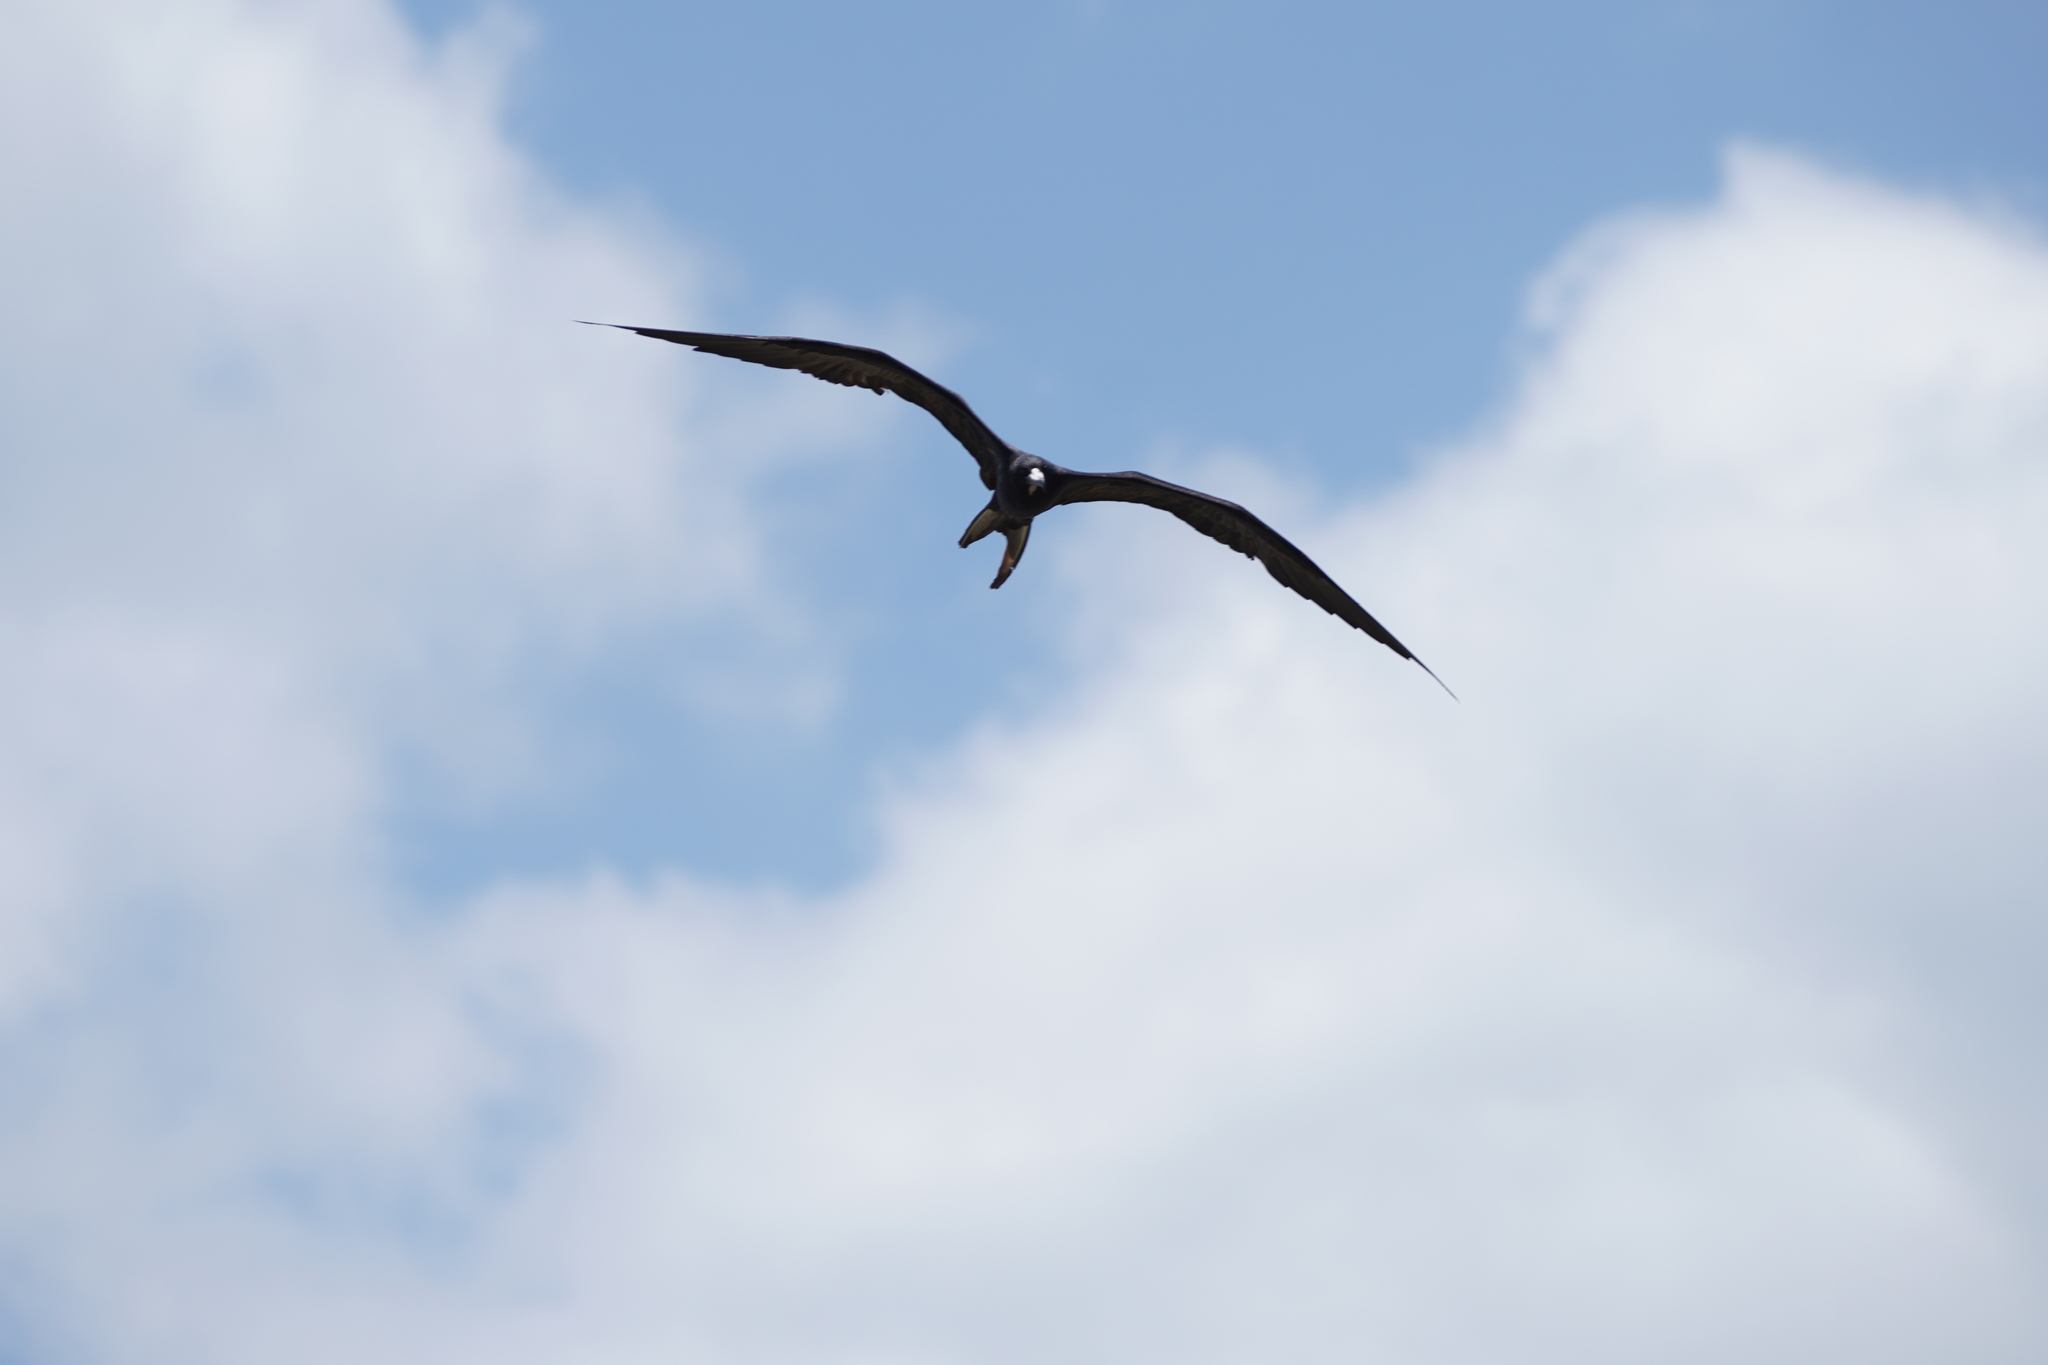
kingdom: Animalia
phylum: Chordata
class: Aves
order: Suliformes
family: Fregatidae
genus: Fregata
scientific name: Fregata magnificens
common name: Magnificent frigatebird
